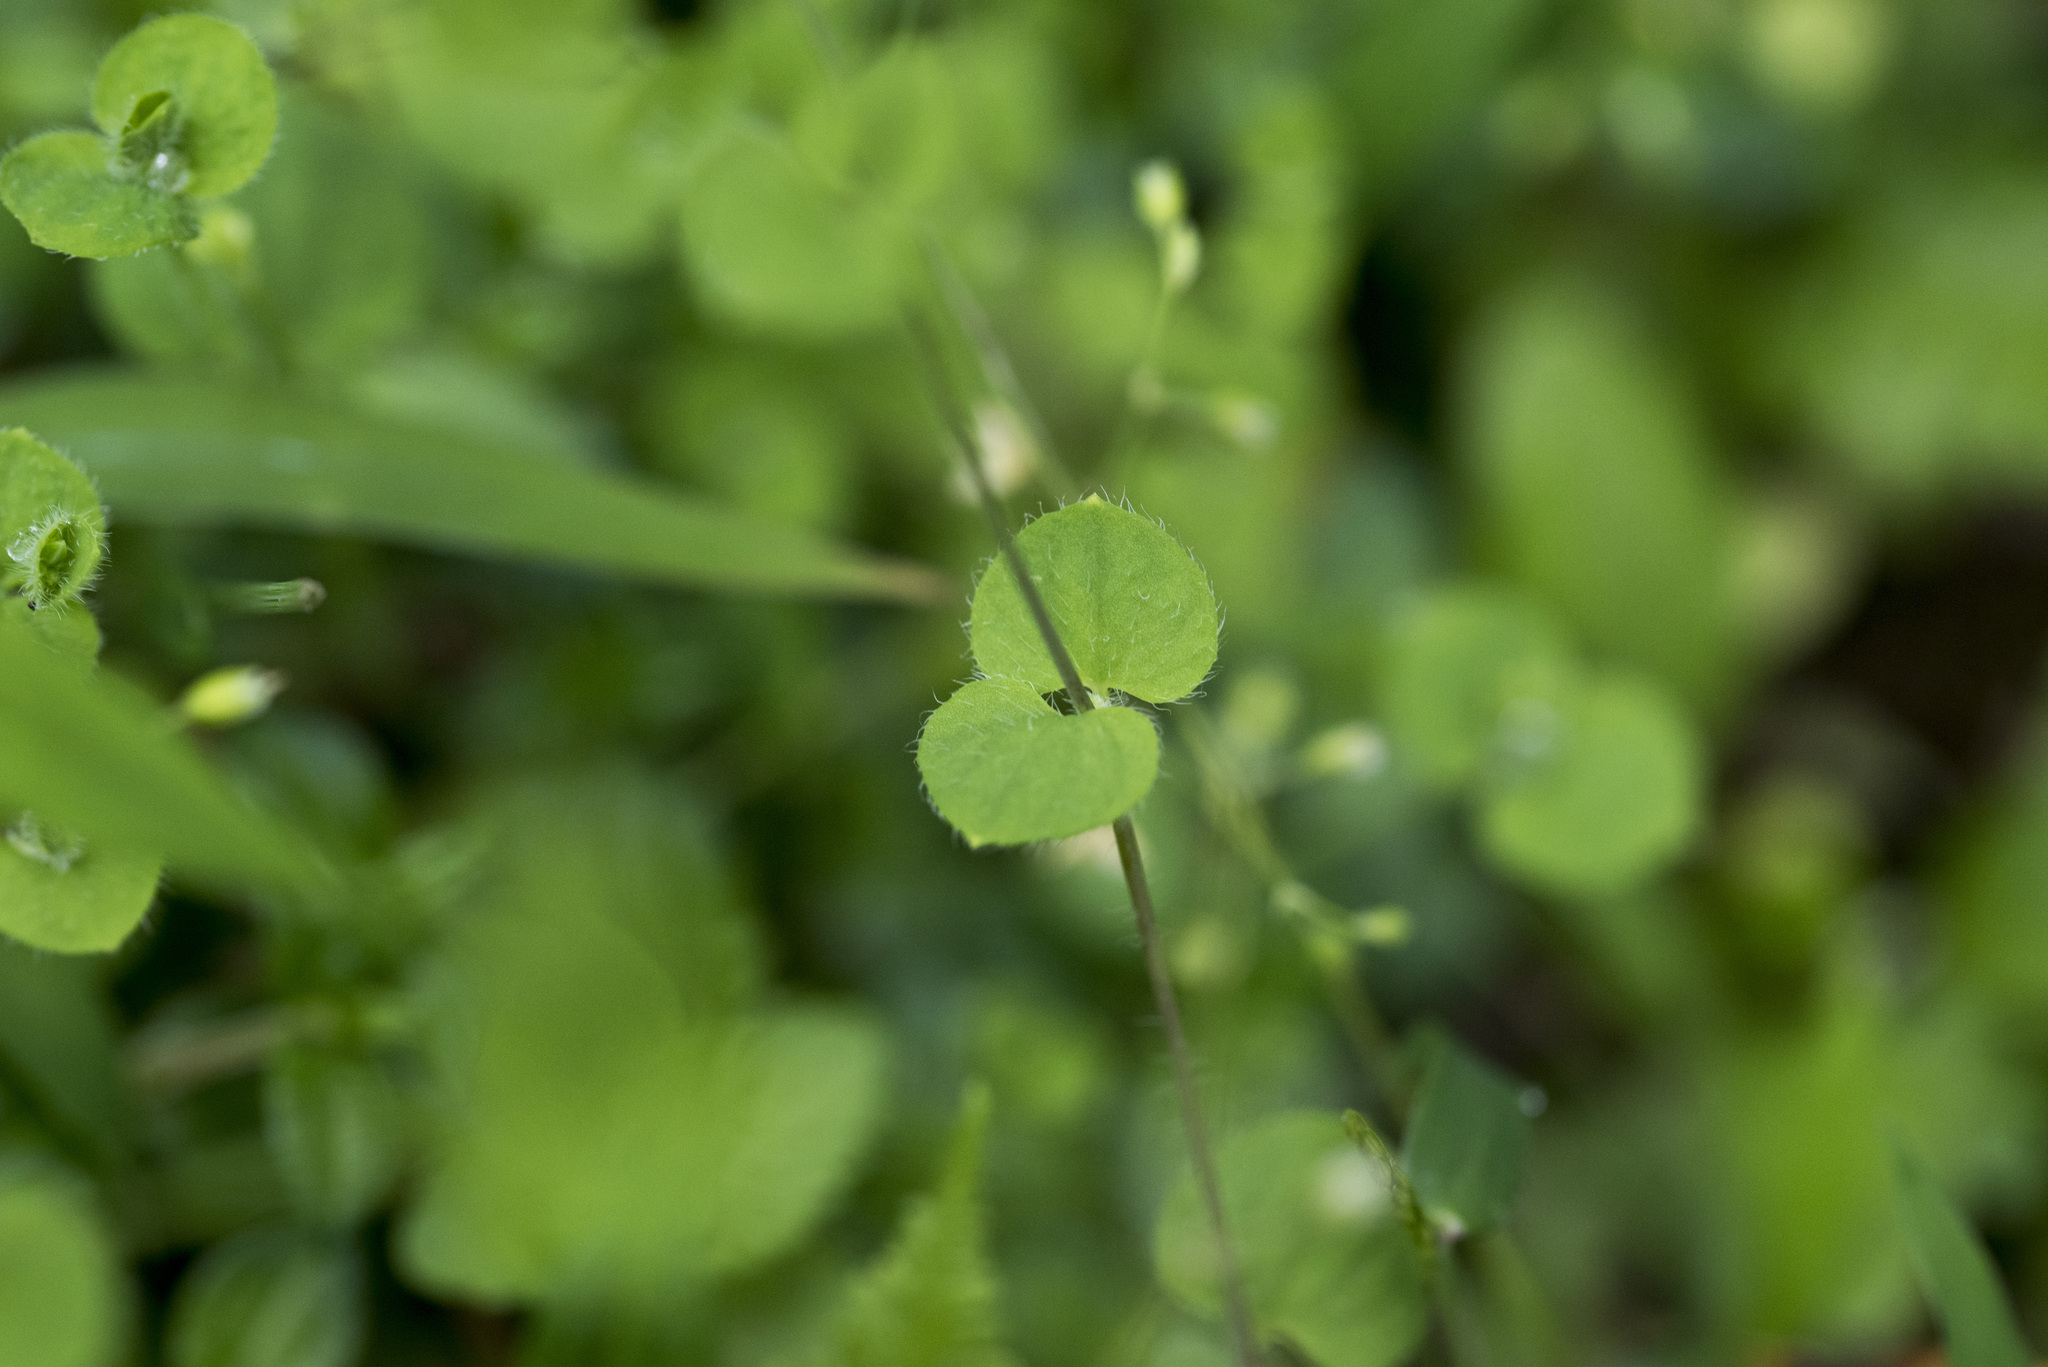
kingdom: Plantae
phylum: Tracheophyta
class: Magnoliopsida
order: Caryophyllales
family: Caryophyllaceae
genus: Drymaria
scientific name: Drymaria villosa
